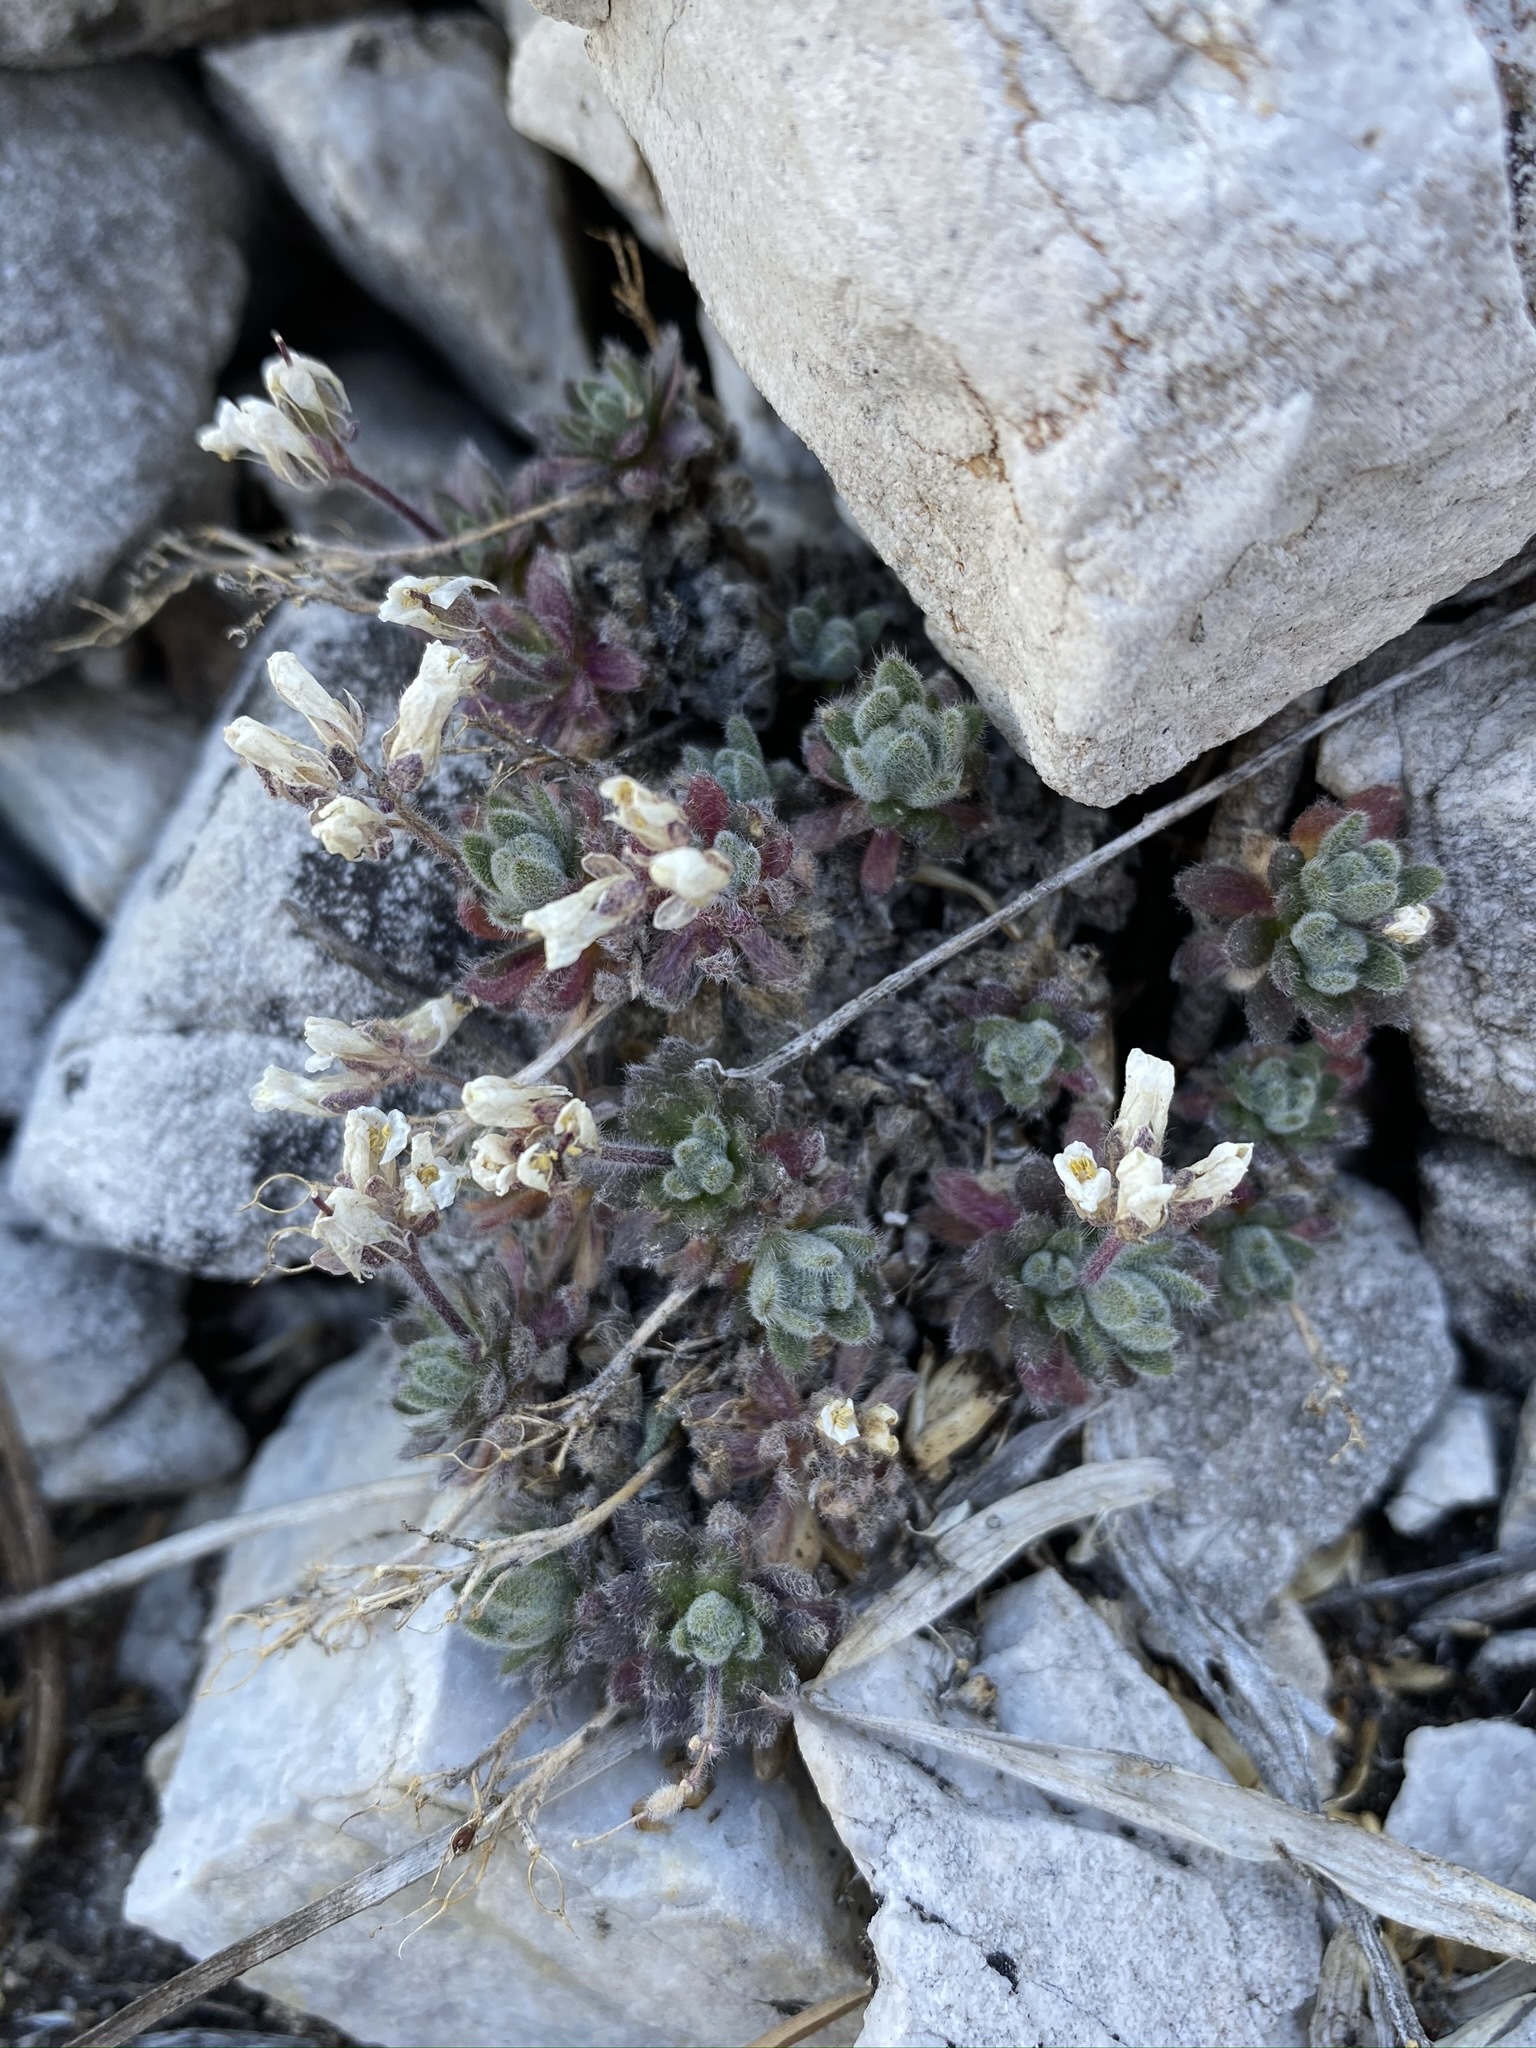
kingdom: Plantae
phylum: Tracheophyta
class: Magnoliopsida
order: Brassicales
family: Brassicaceae
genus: Draba
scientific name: Draba jaegeri
